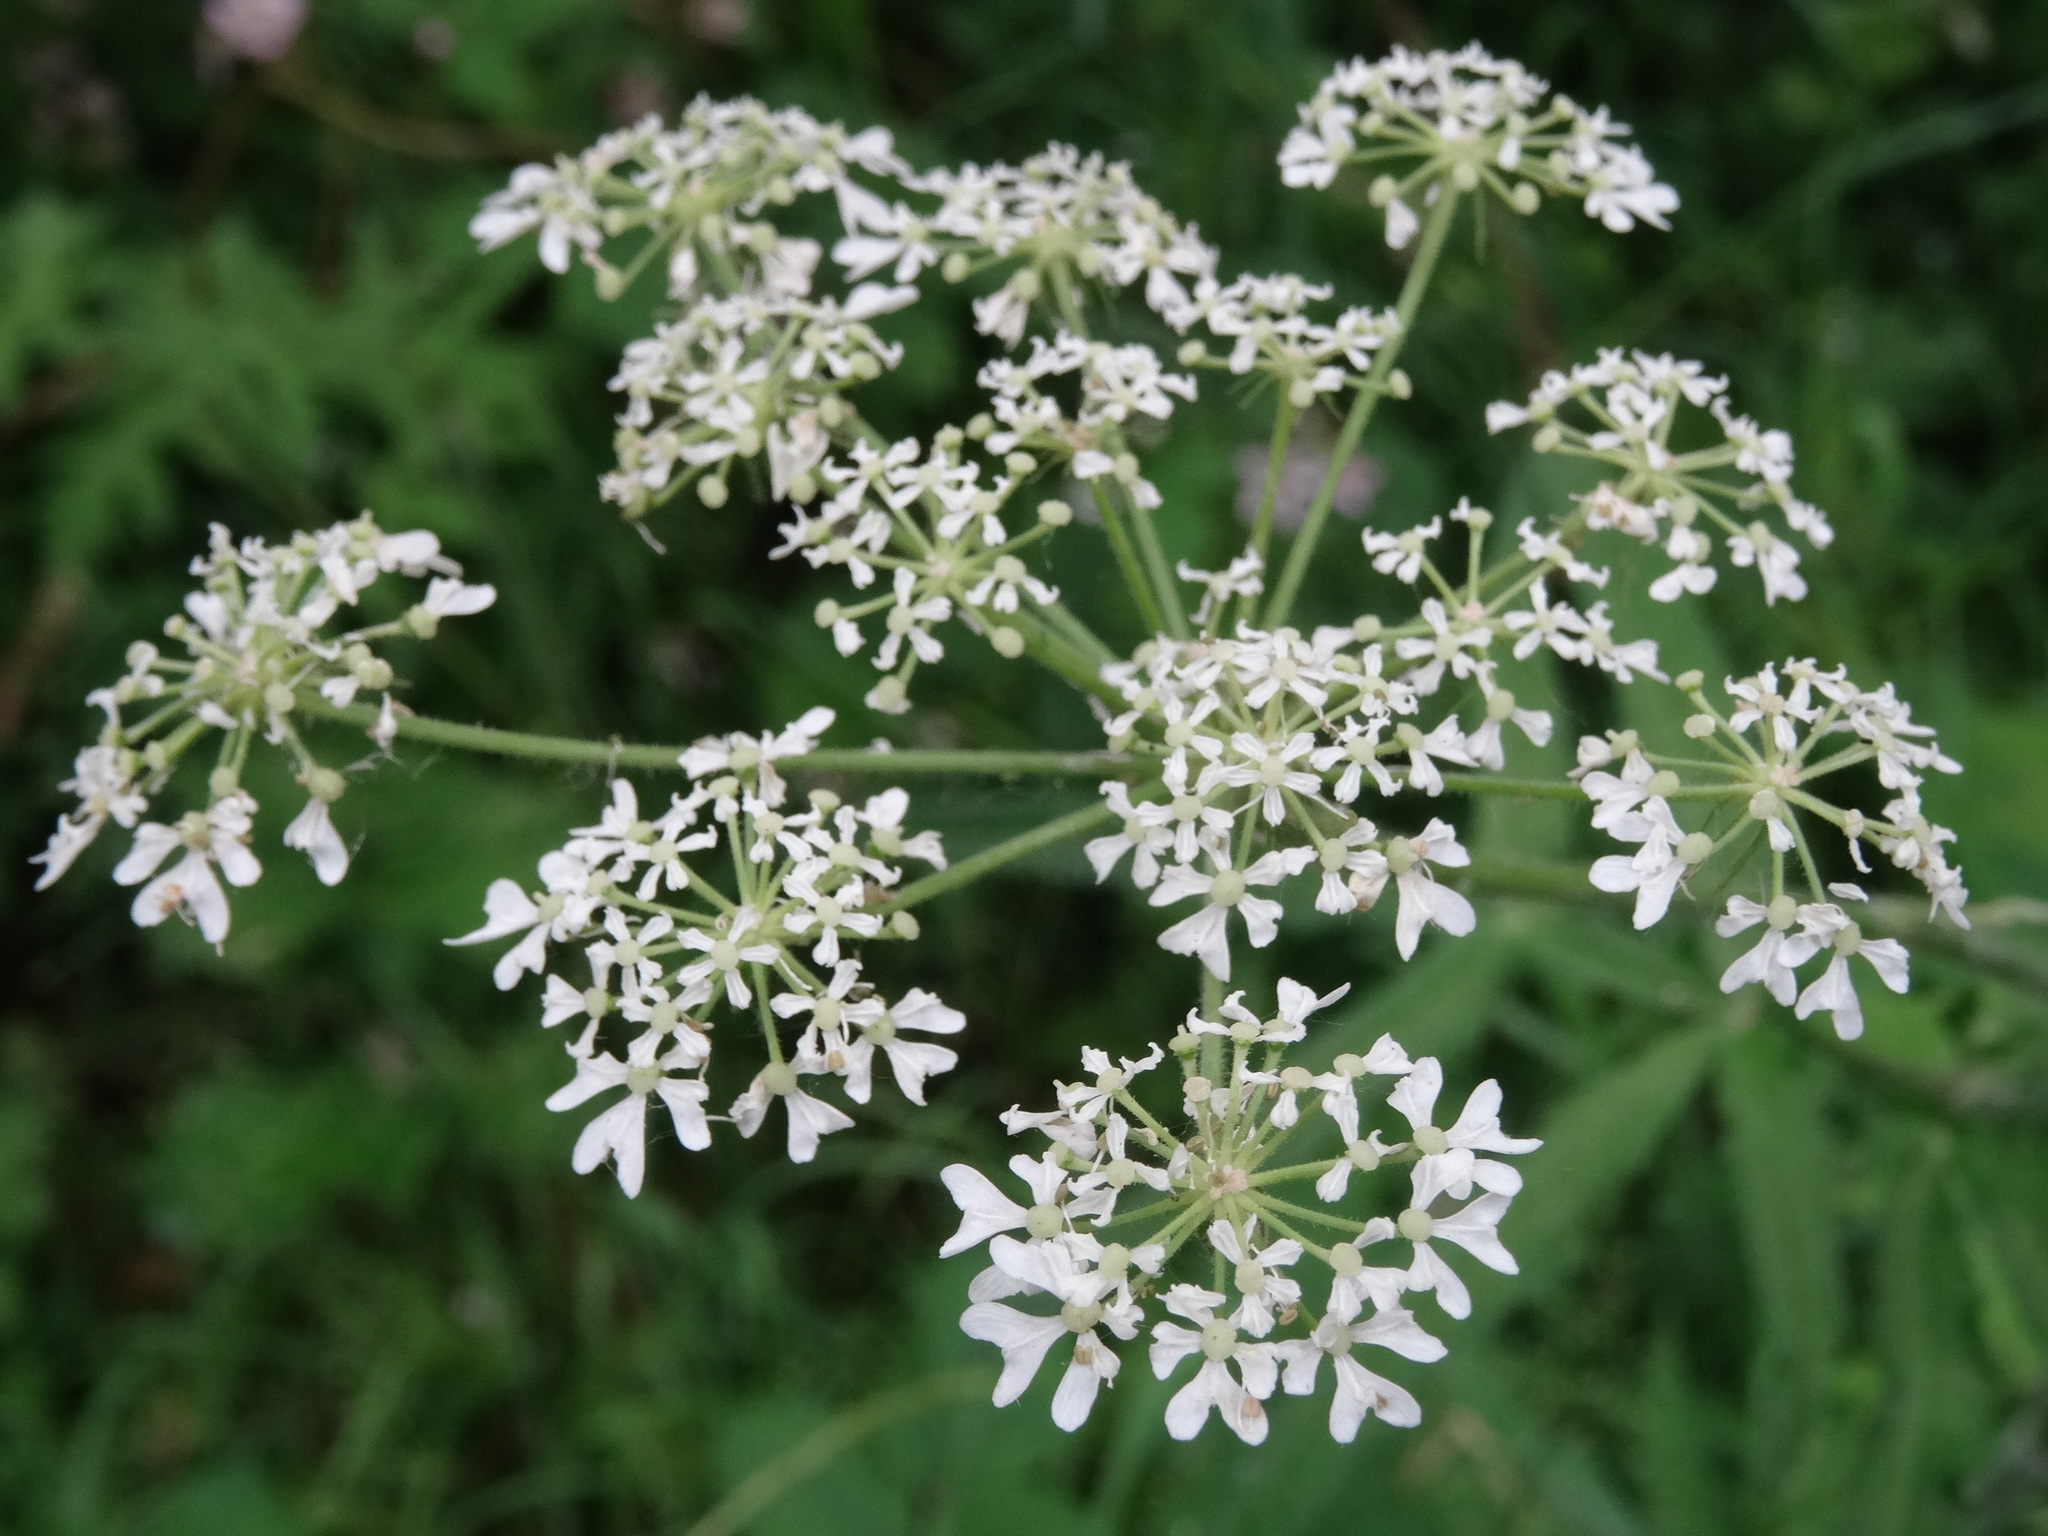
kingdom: Plantae
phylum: Tracheophyta
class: Magnoliopsida
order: Apiales
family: Apiaceae
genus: Heracleum
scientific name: Heracleum sphondylium
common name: Hogweed
